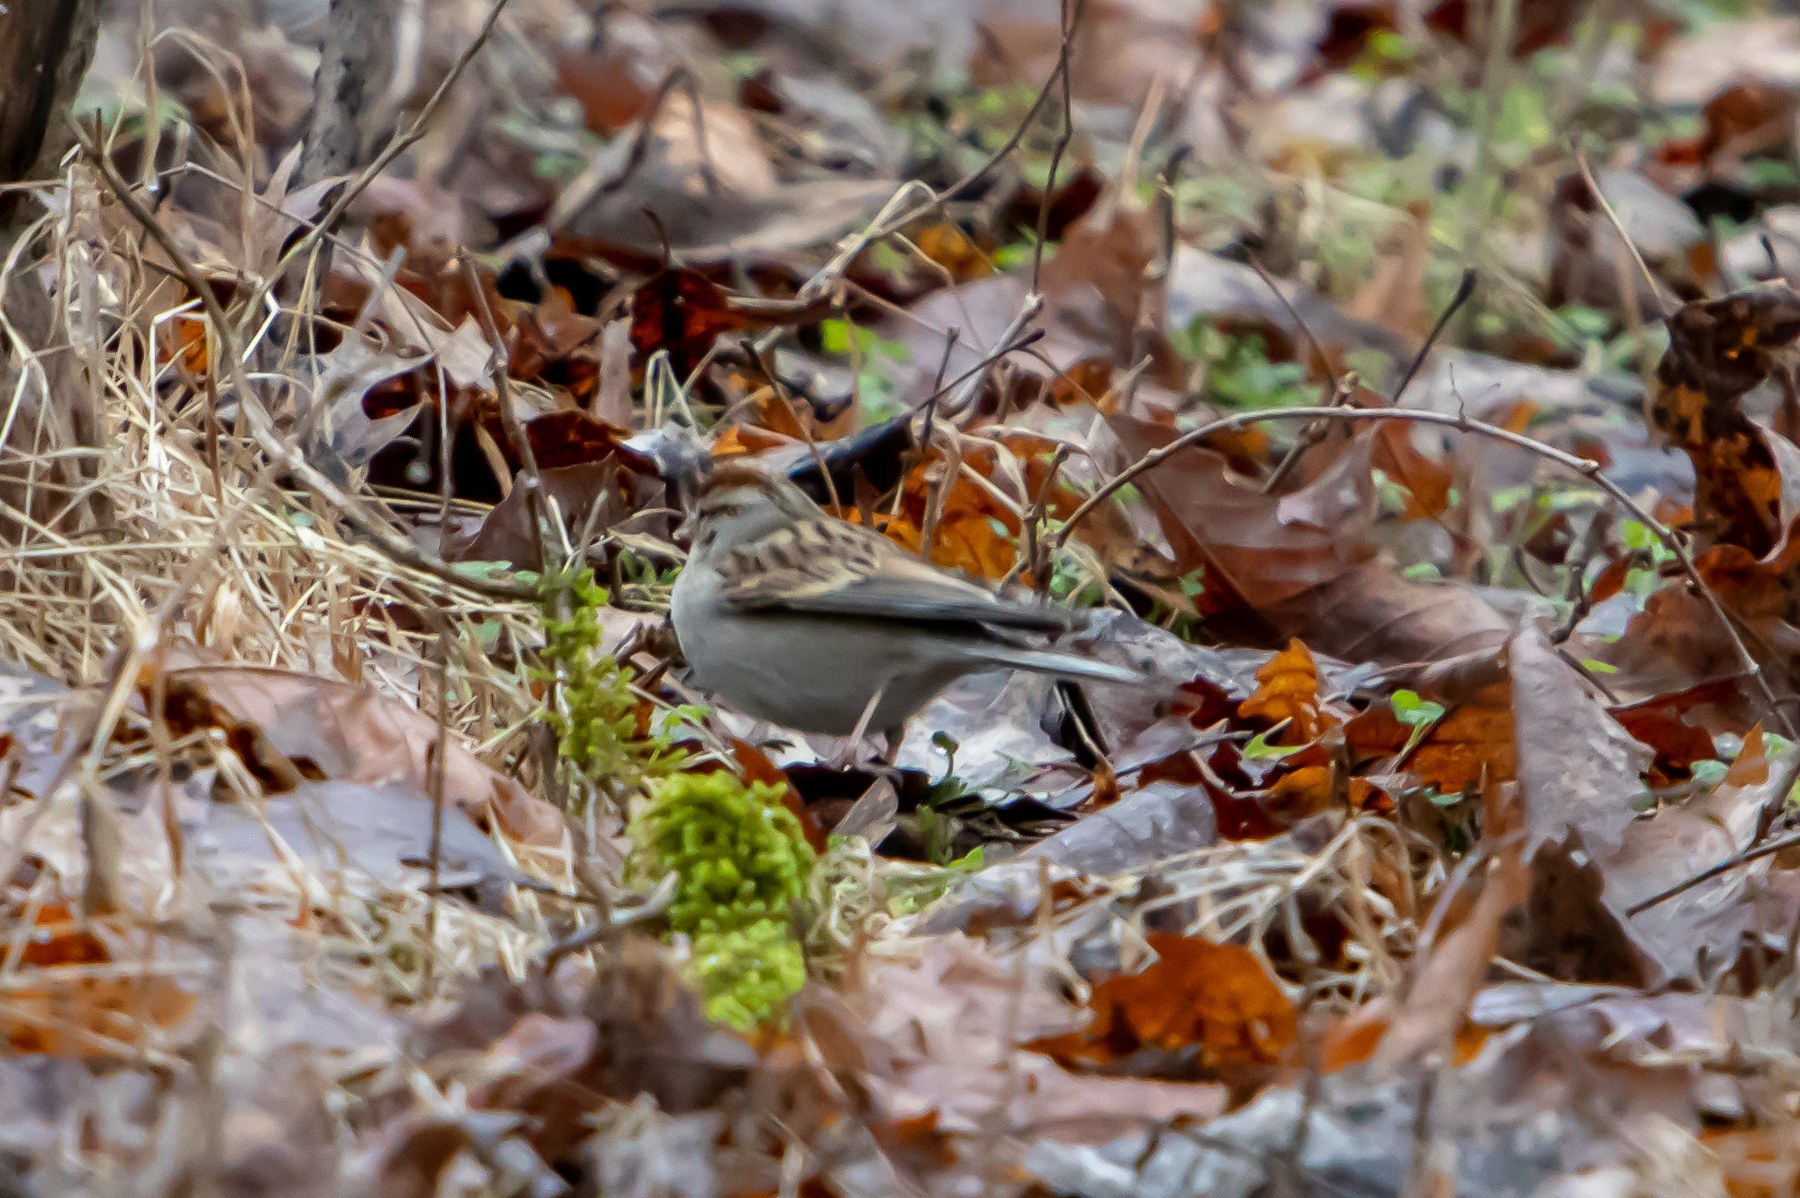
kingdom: Animalia
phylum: Chordata
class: Aves
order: Passeriformes
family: Passerellidae
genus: Spizella
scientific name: Spizella passerina
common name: Chipping sparrow
